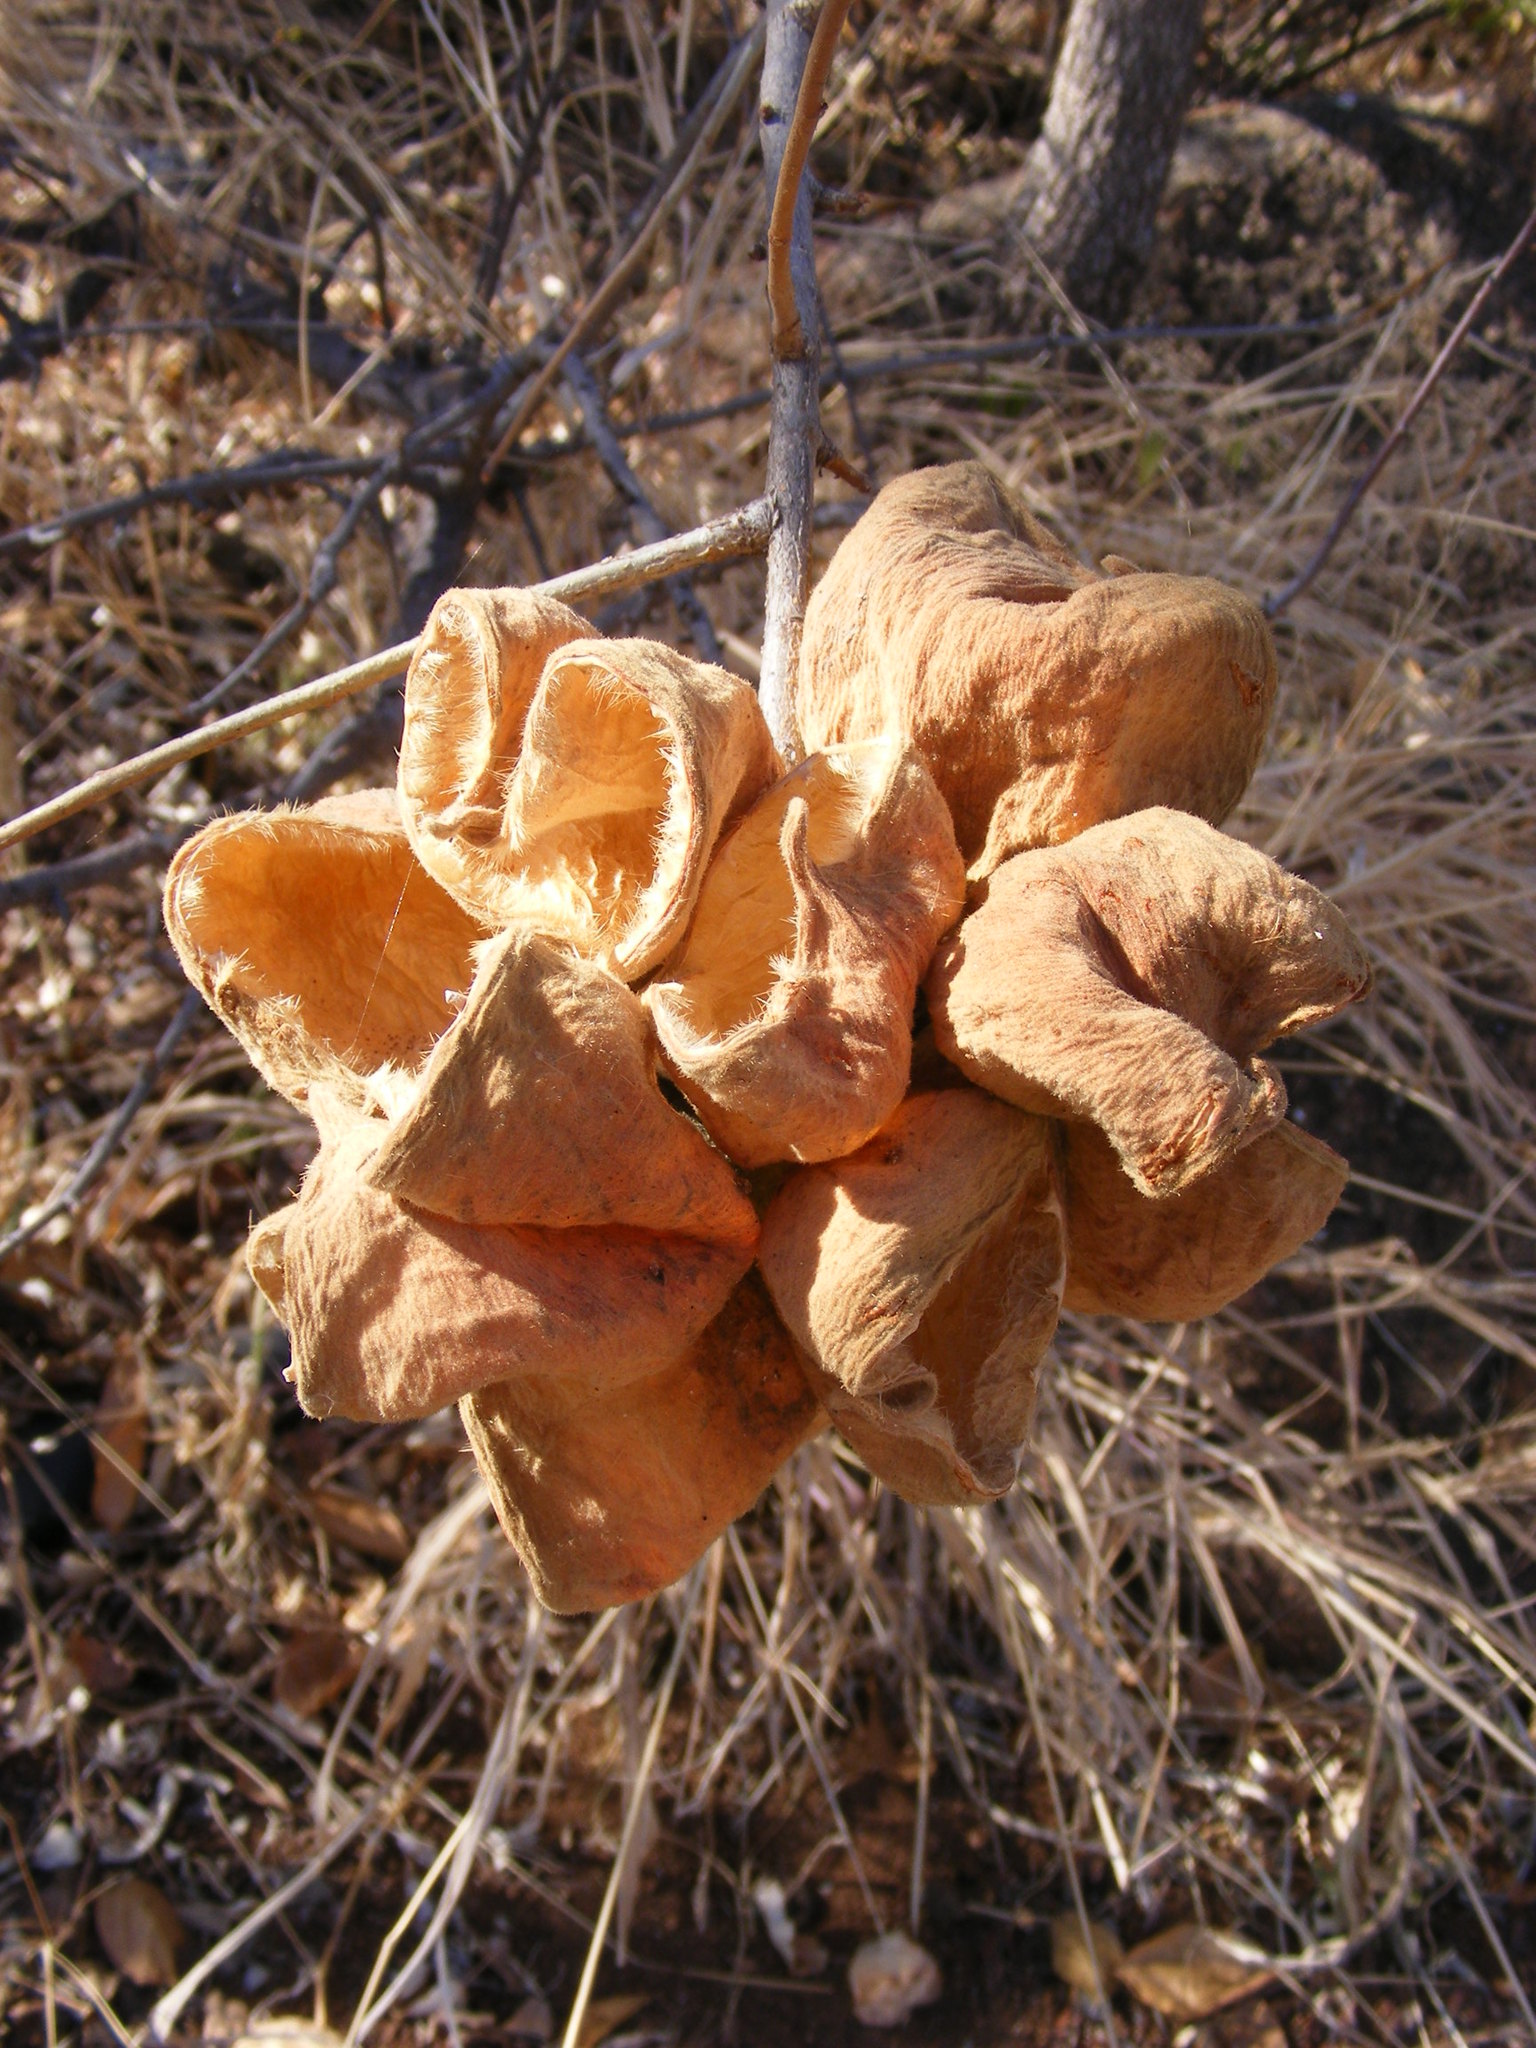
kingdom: Plantae
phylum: Tracheophyta
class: Magnoliopsida
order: Malvales
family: Malvaceae
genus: Sterculia
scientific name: Sterculia rogersii
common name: Star-chestnut
